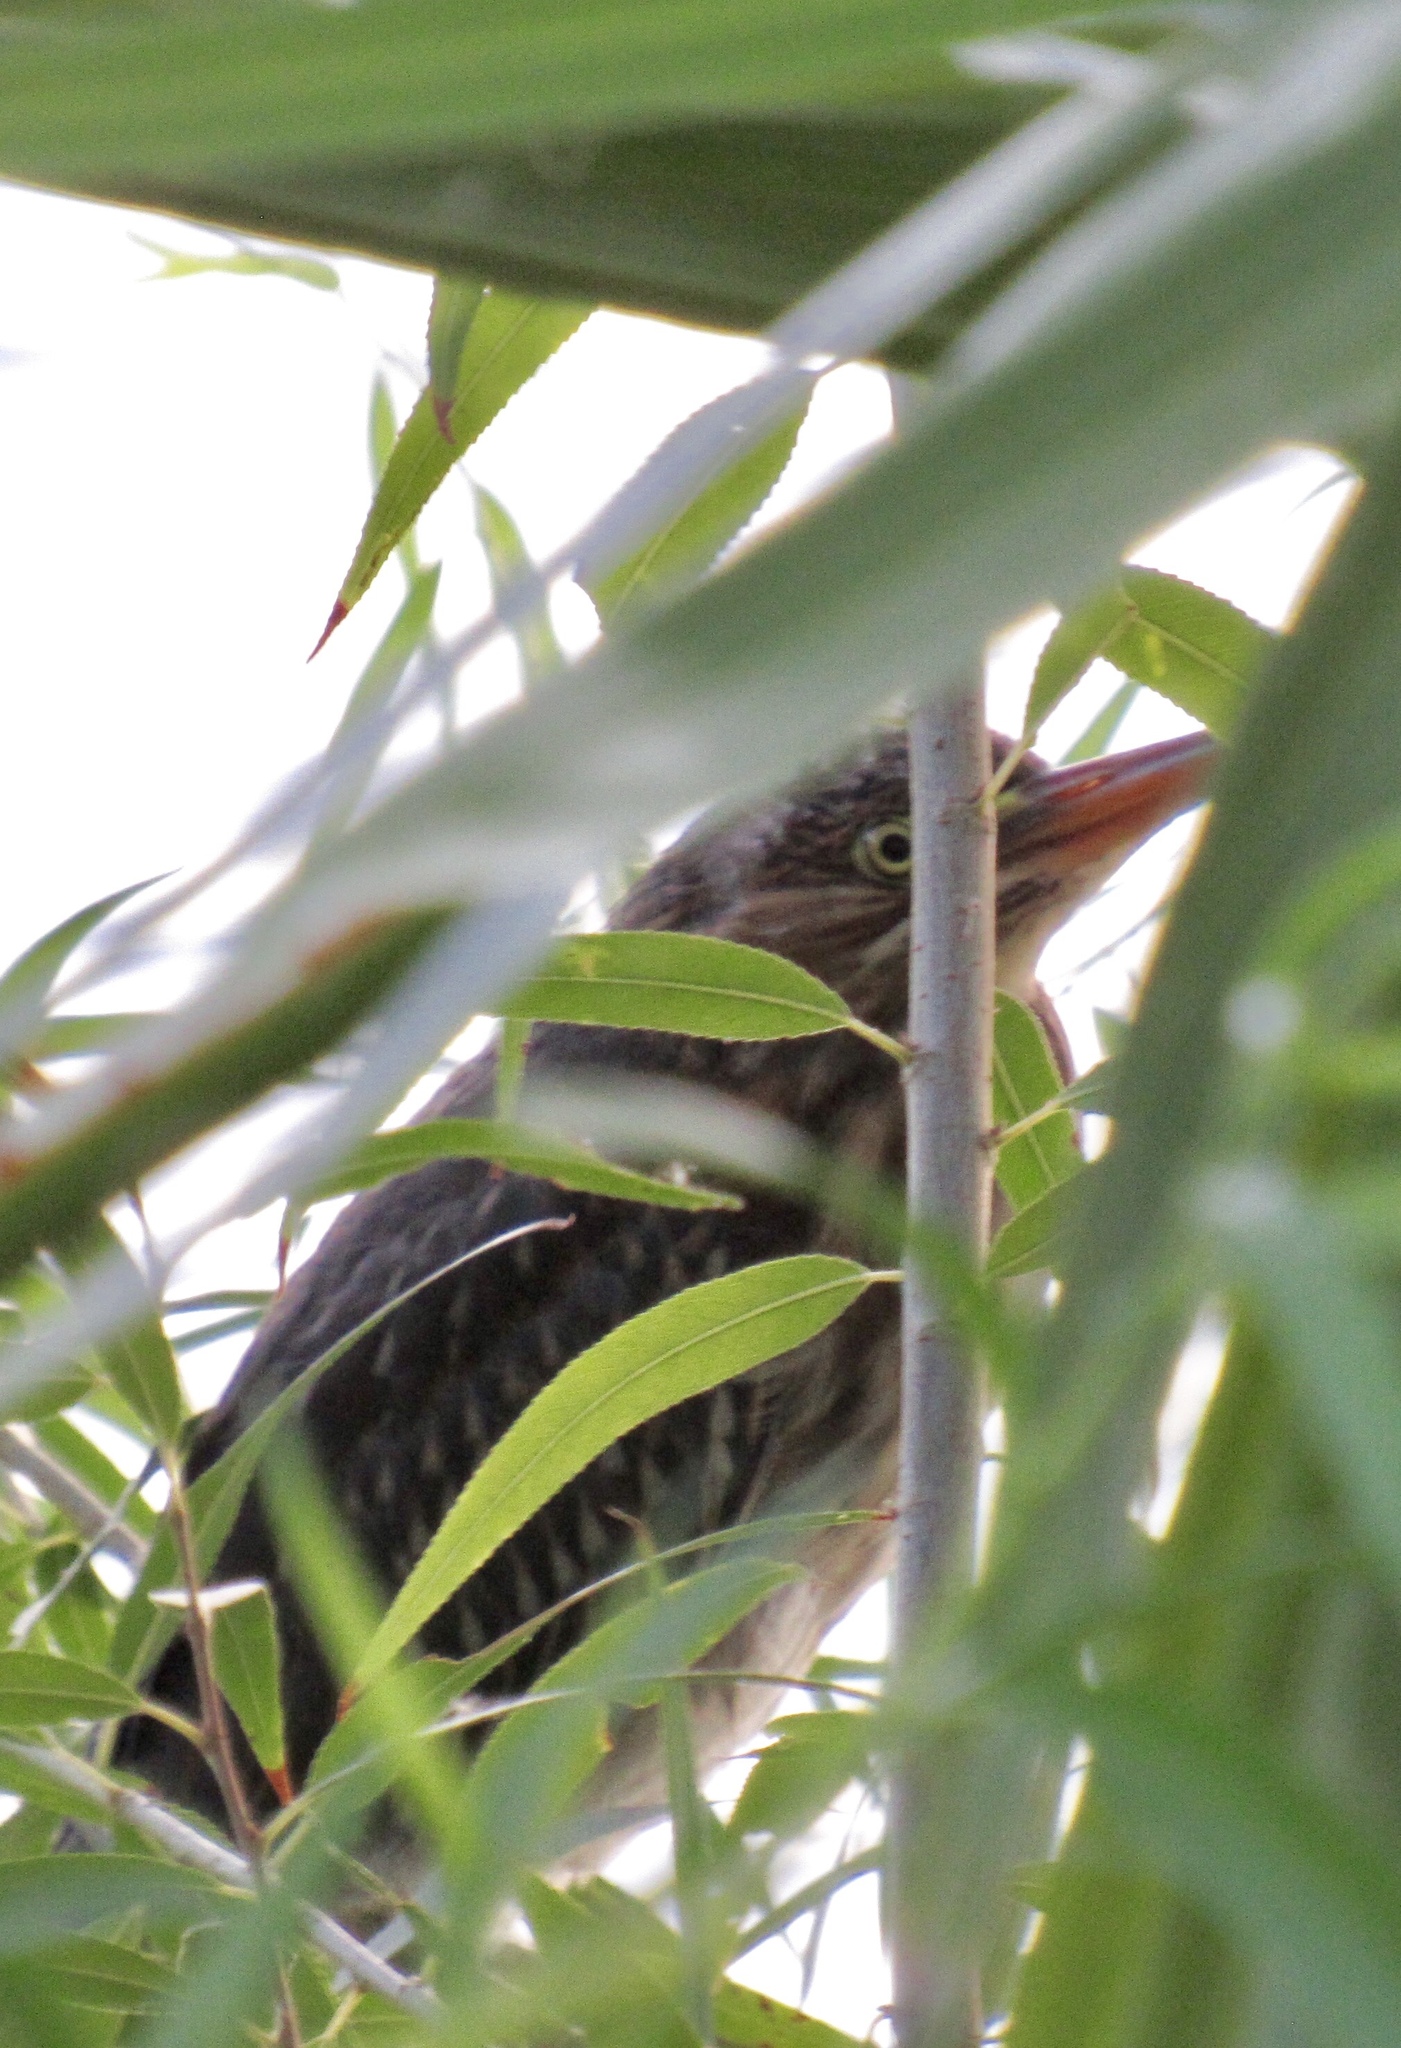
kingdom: Animalia
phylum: Chordata
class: Aves
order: Pelecaniformes
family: Ardeidae
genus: Butorides
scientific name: Butorides virescens
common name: Green heron
